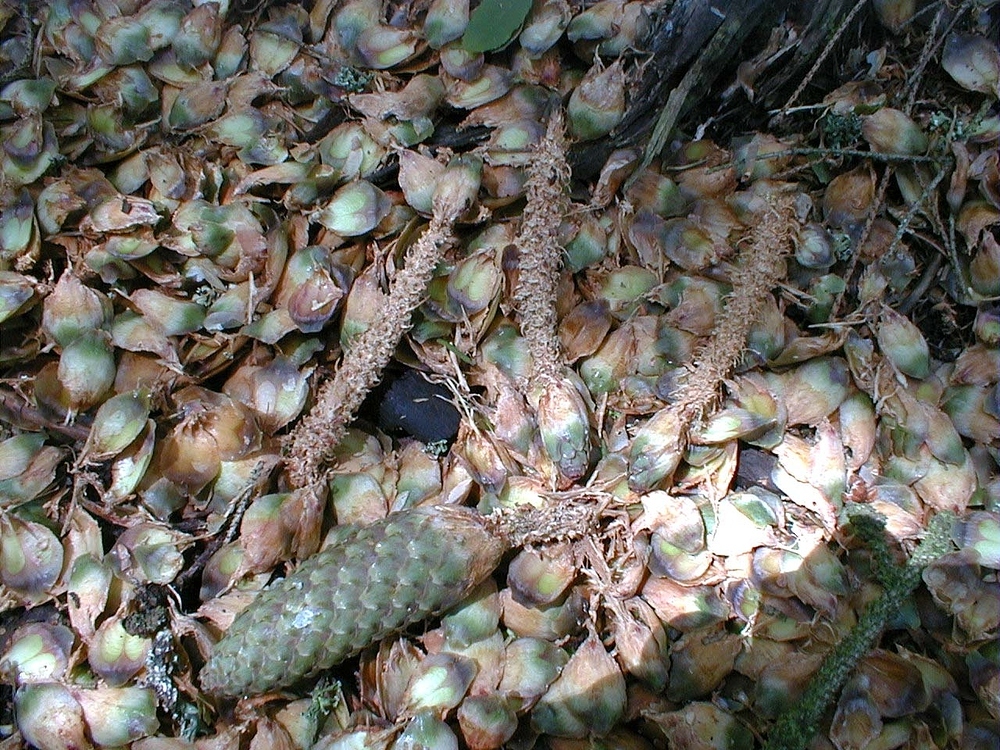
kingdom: Animalia
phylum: Chordata
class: Mammalia
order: Rodentia
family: Sciuridae
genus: Sciurus
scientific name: Sciurus vulgaris
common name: Eurasian red squirrel
